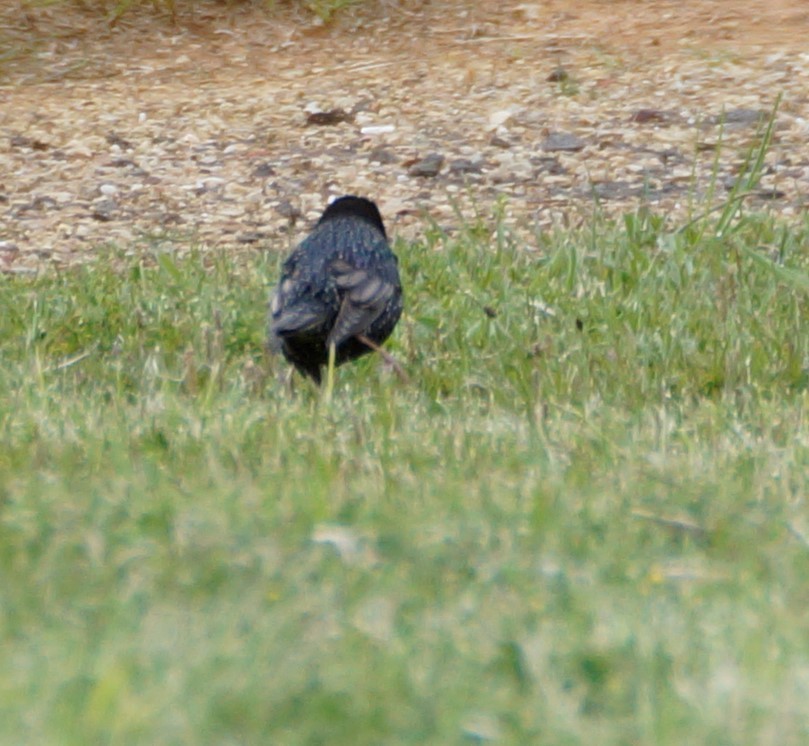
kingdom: Animalia
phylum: Chordata
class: Aves
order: Passeriformes
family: Sturnidae
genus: Sturnus
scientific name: Sturnus vulgaris
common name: Common starling
